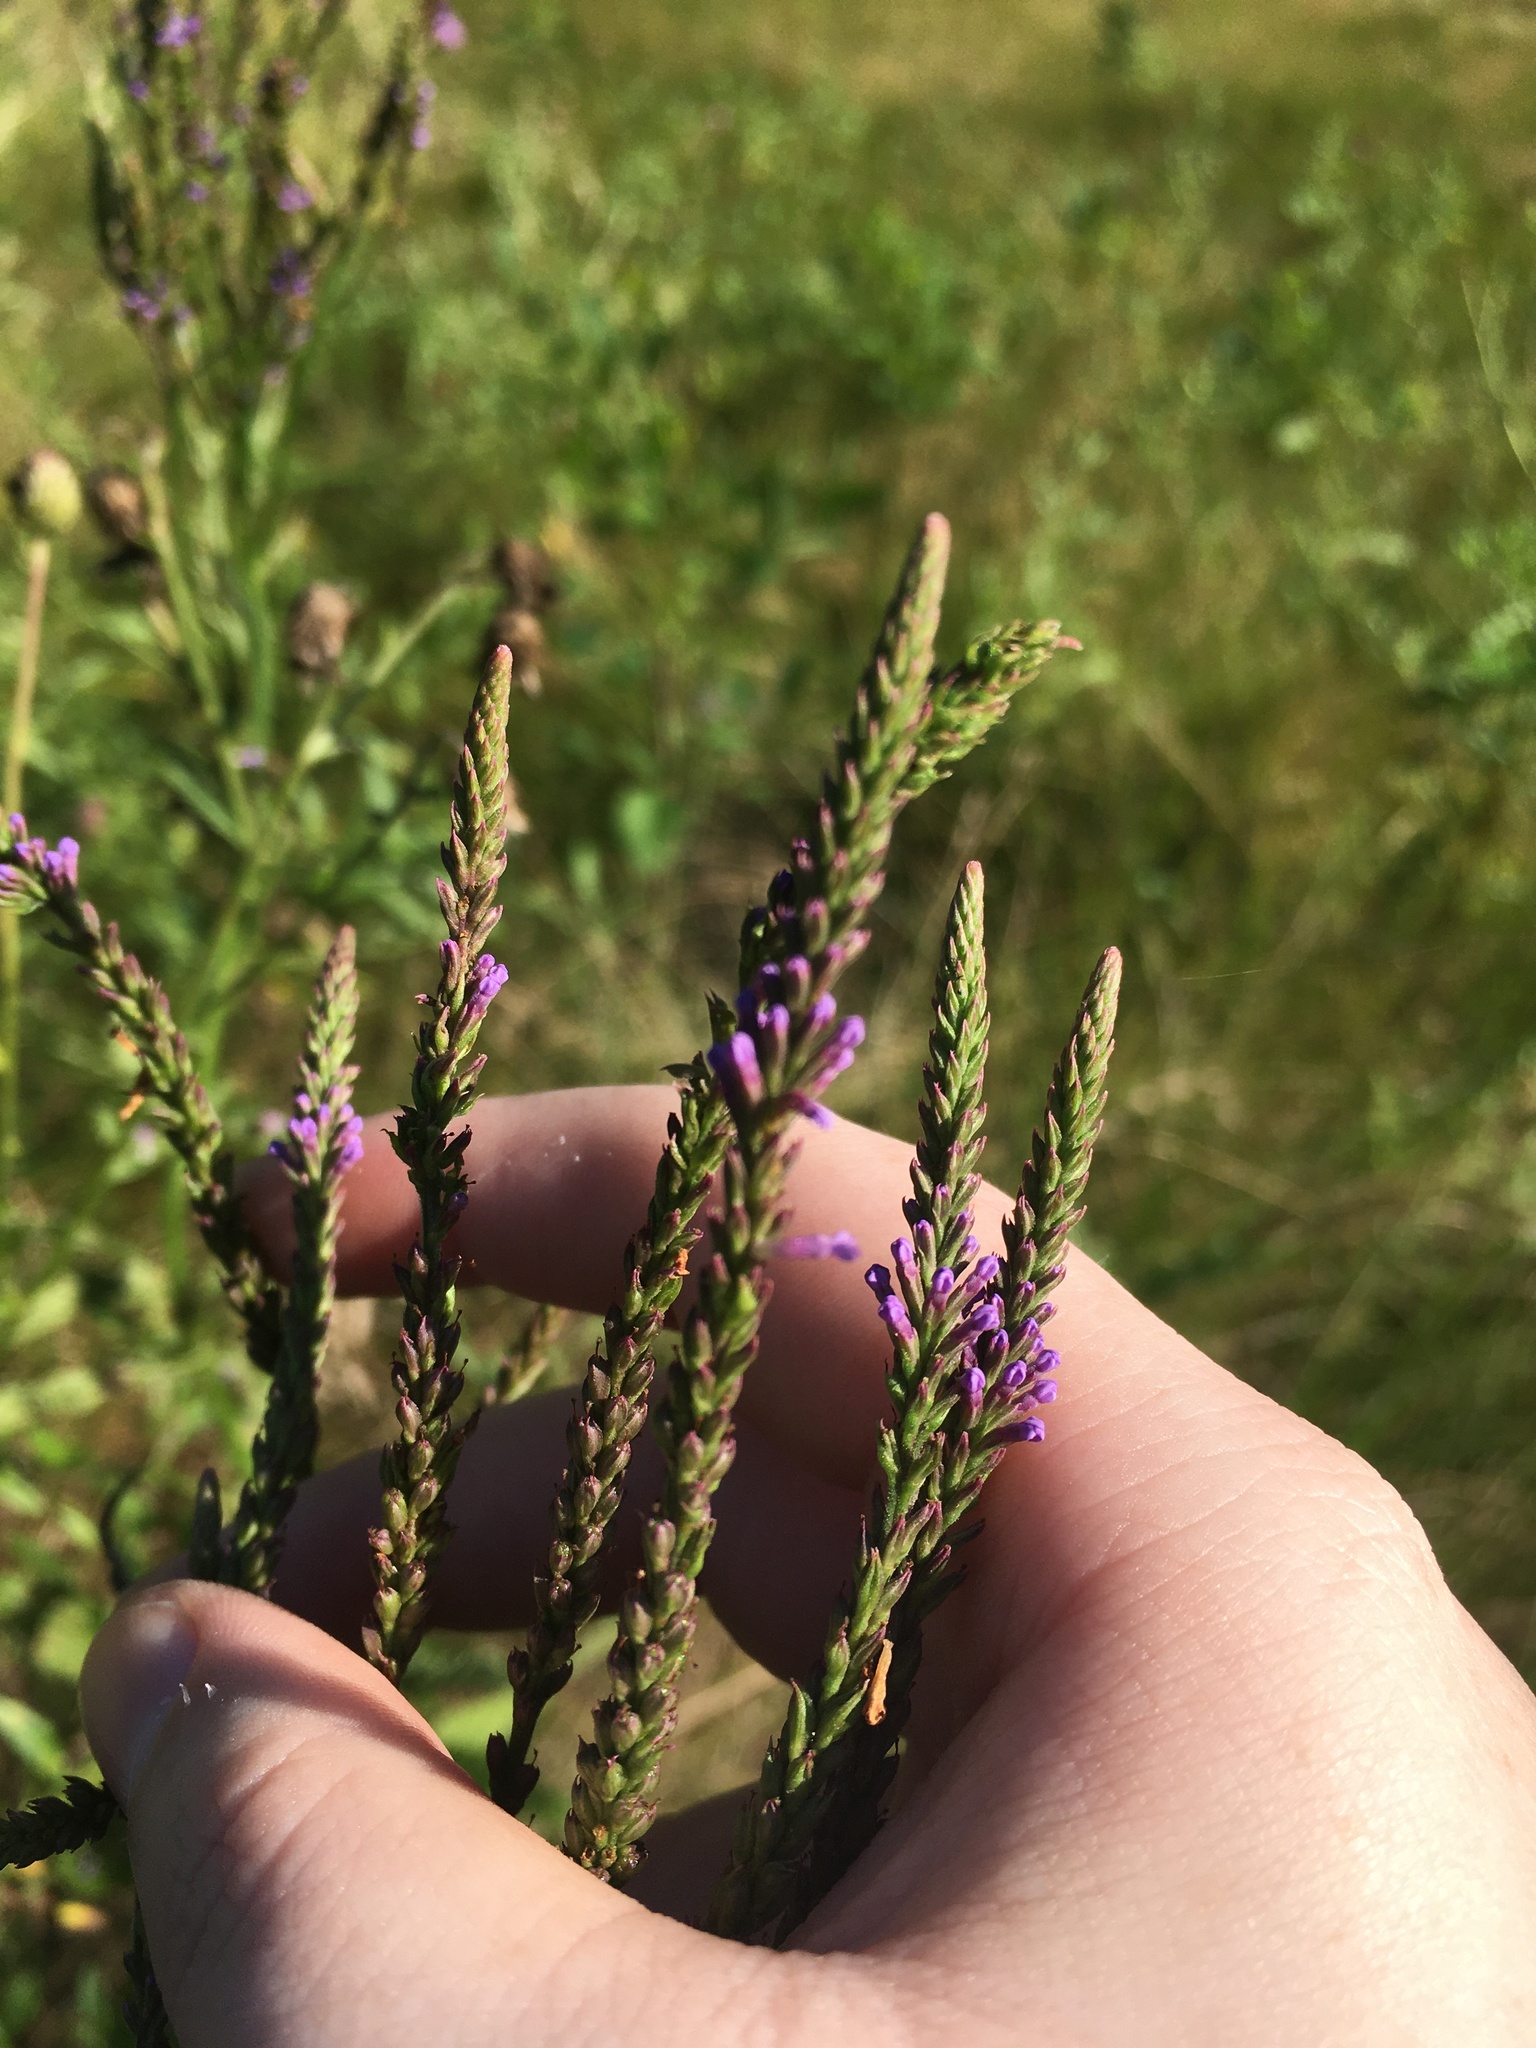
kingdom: Plantae
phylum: Tracheophyta
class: Magnoliopsida
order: Lamiales
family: Verbenaceae
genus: Verbena
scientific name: Verbena hastata
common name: American blue vervain
